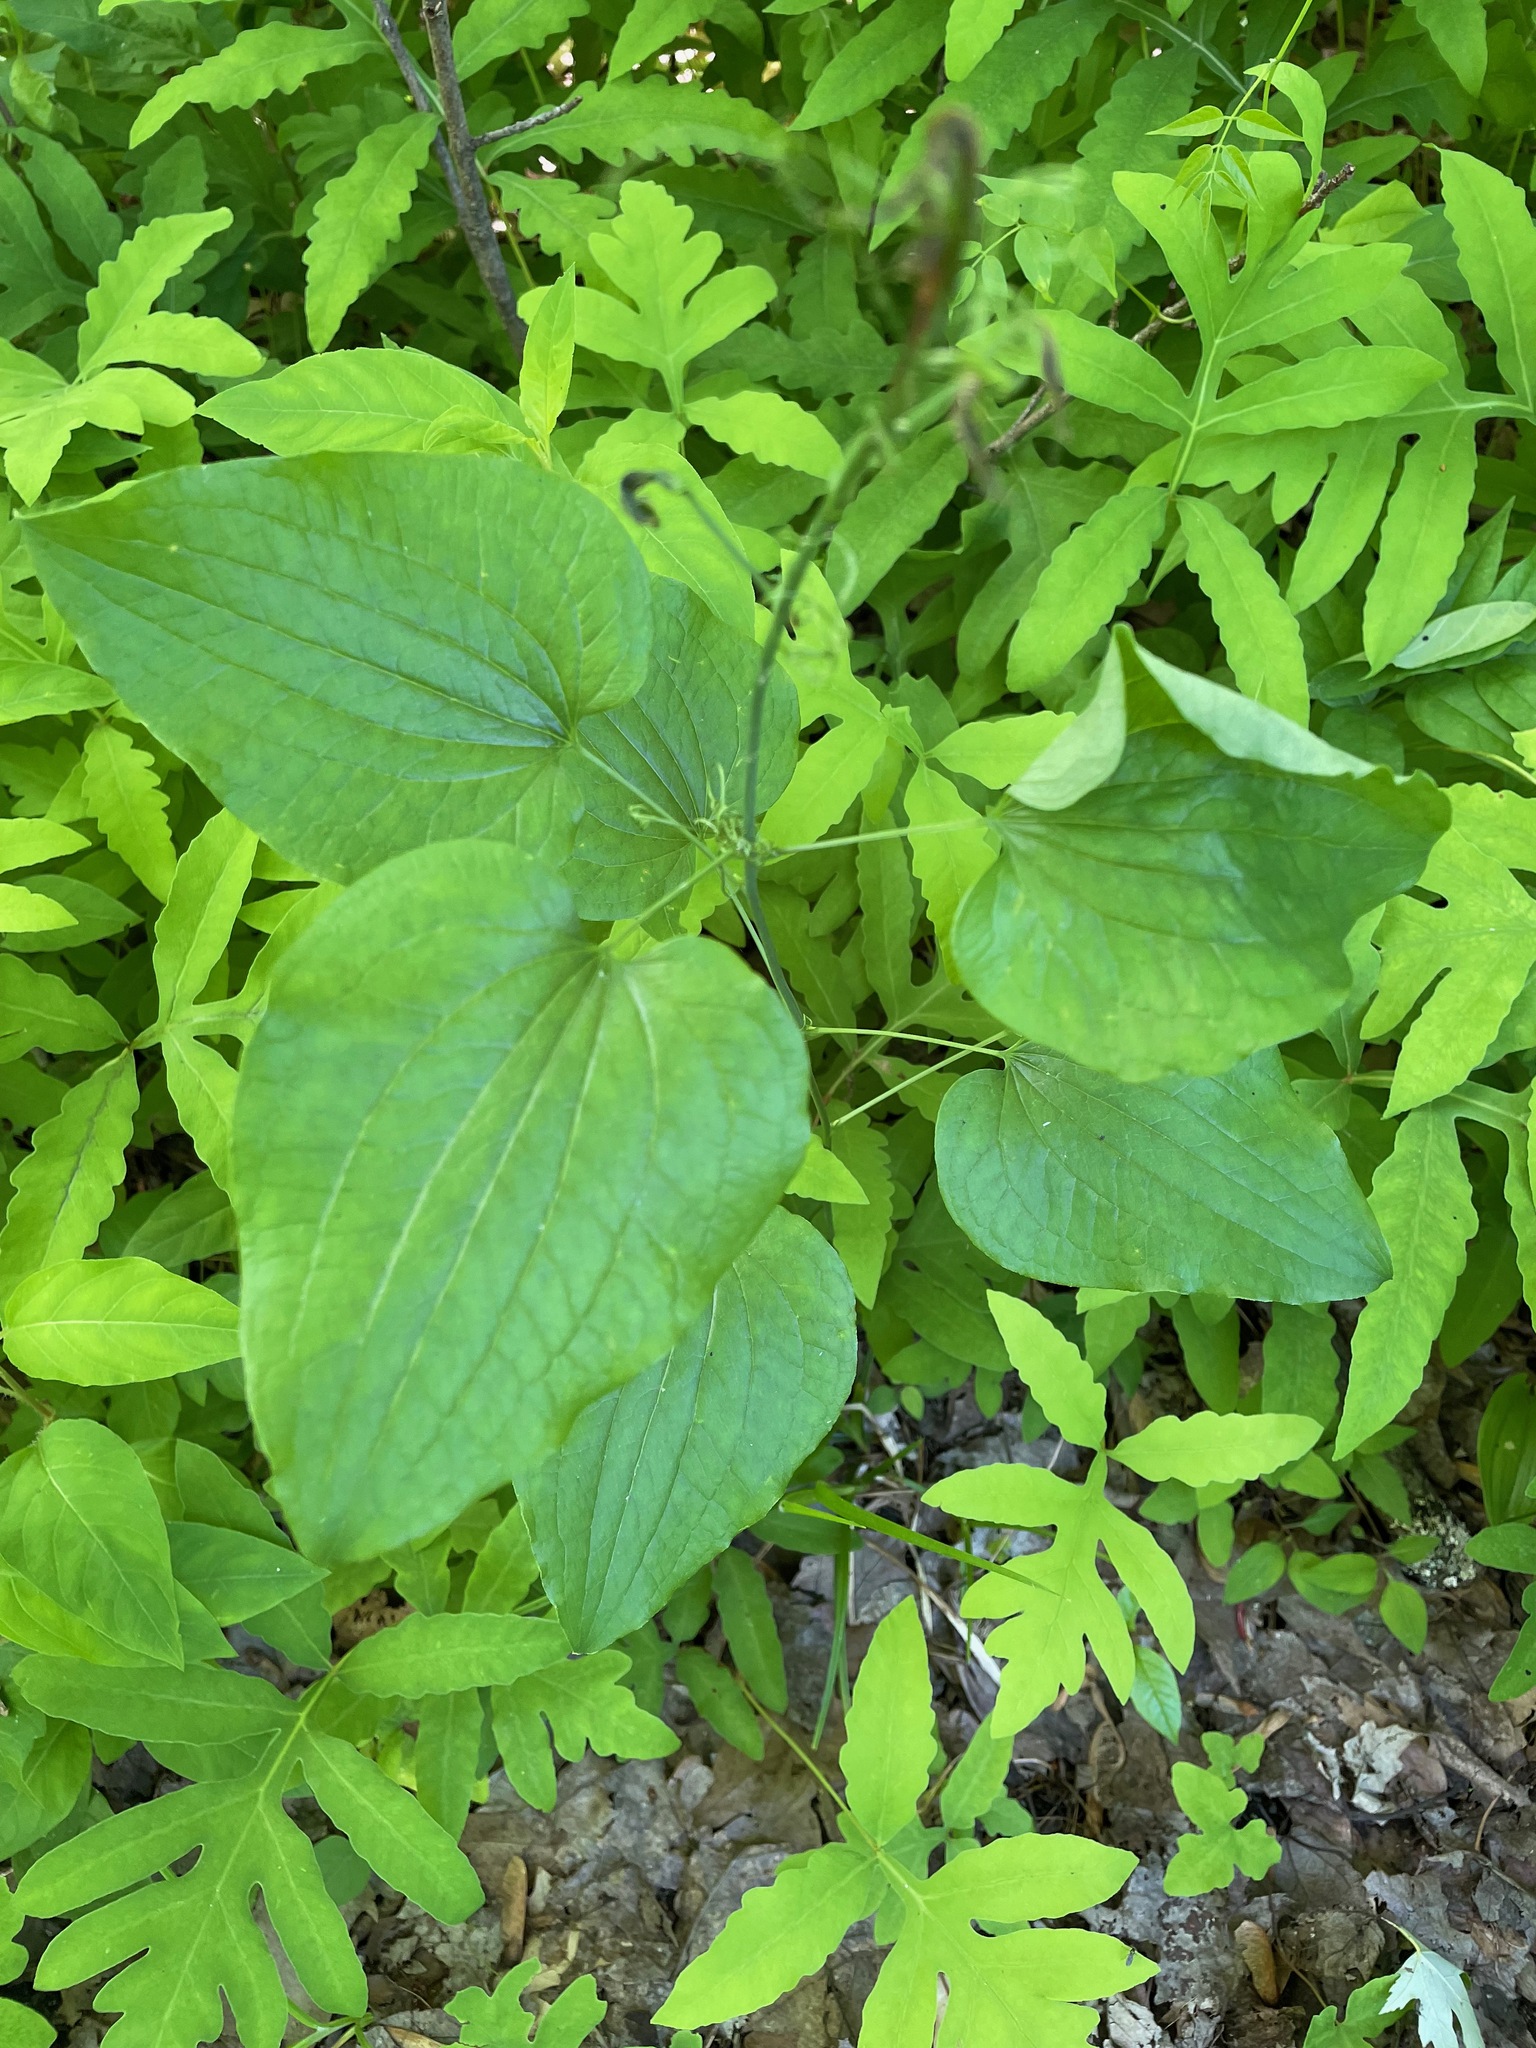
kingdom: Plantae
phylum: Tracheophyta
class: Liliopsida
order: Liliales
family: Smilacaceae
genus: Smilax
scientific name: Smilax herbacea
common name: Jacob's-ladder
